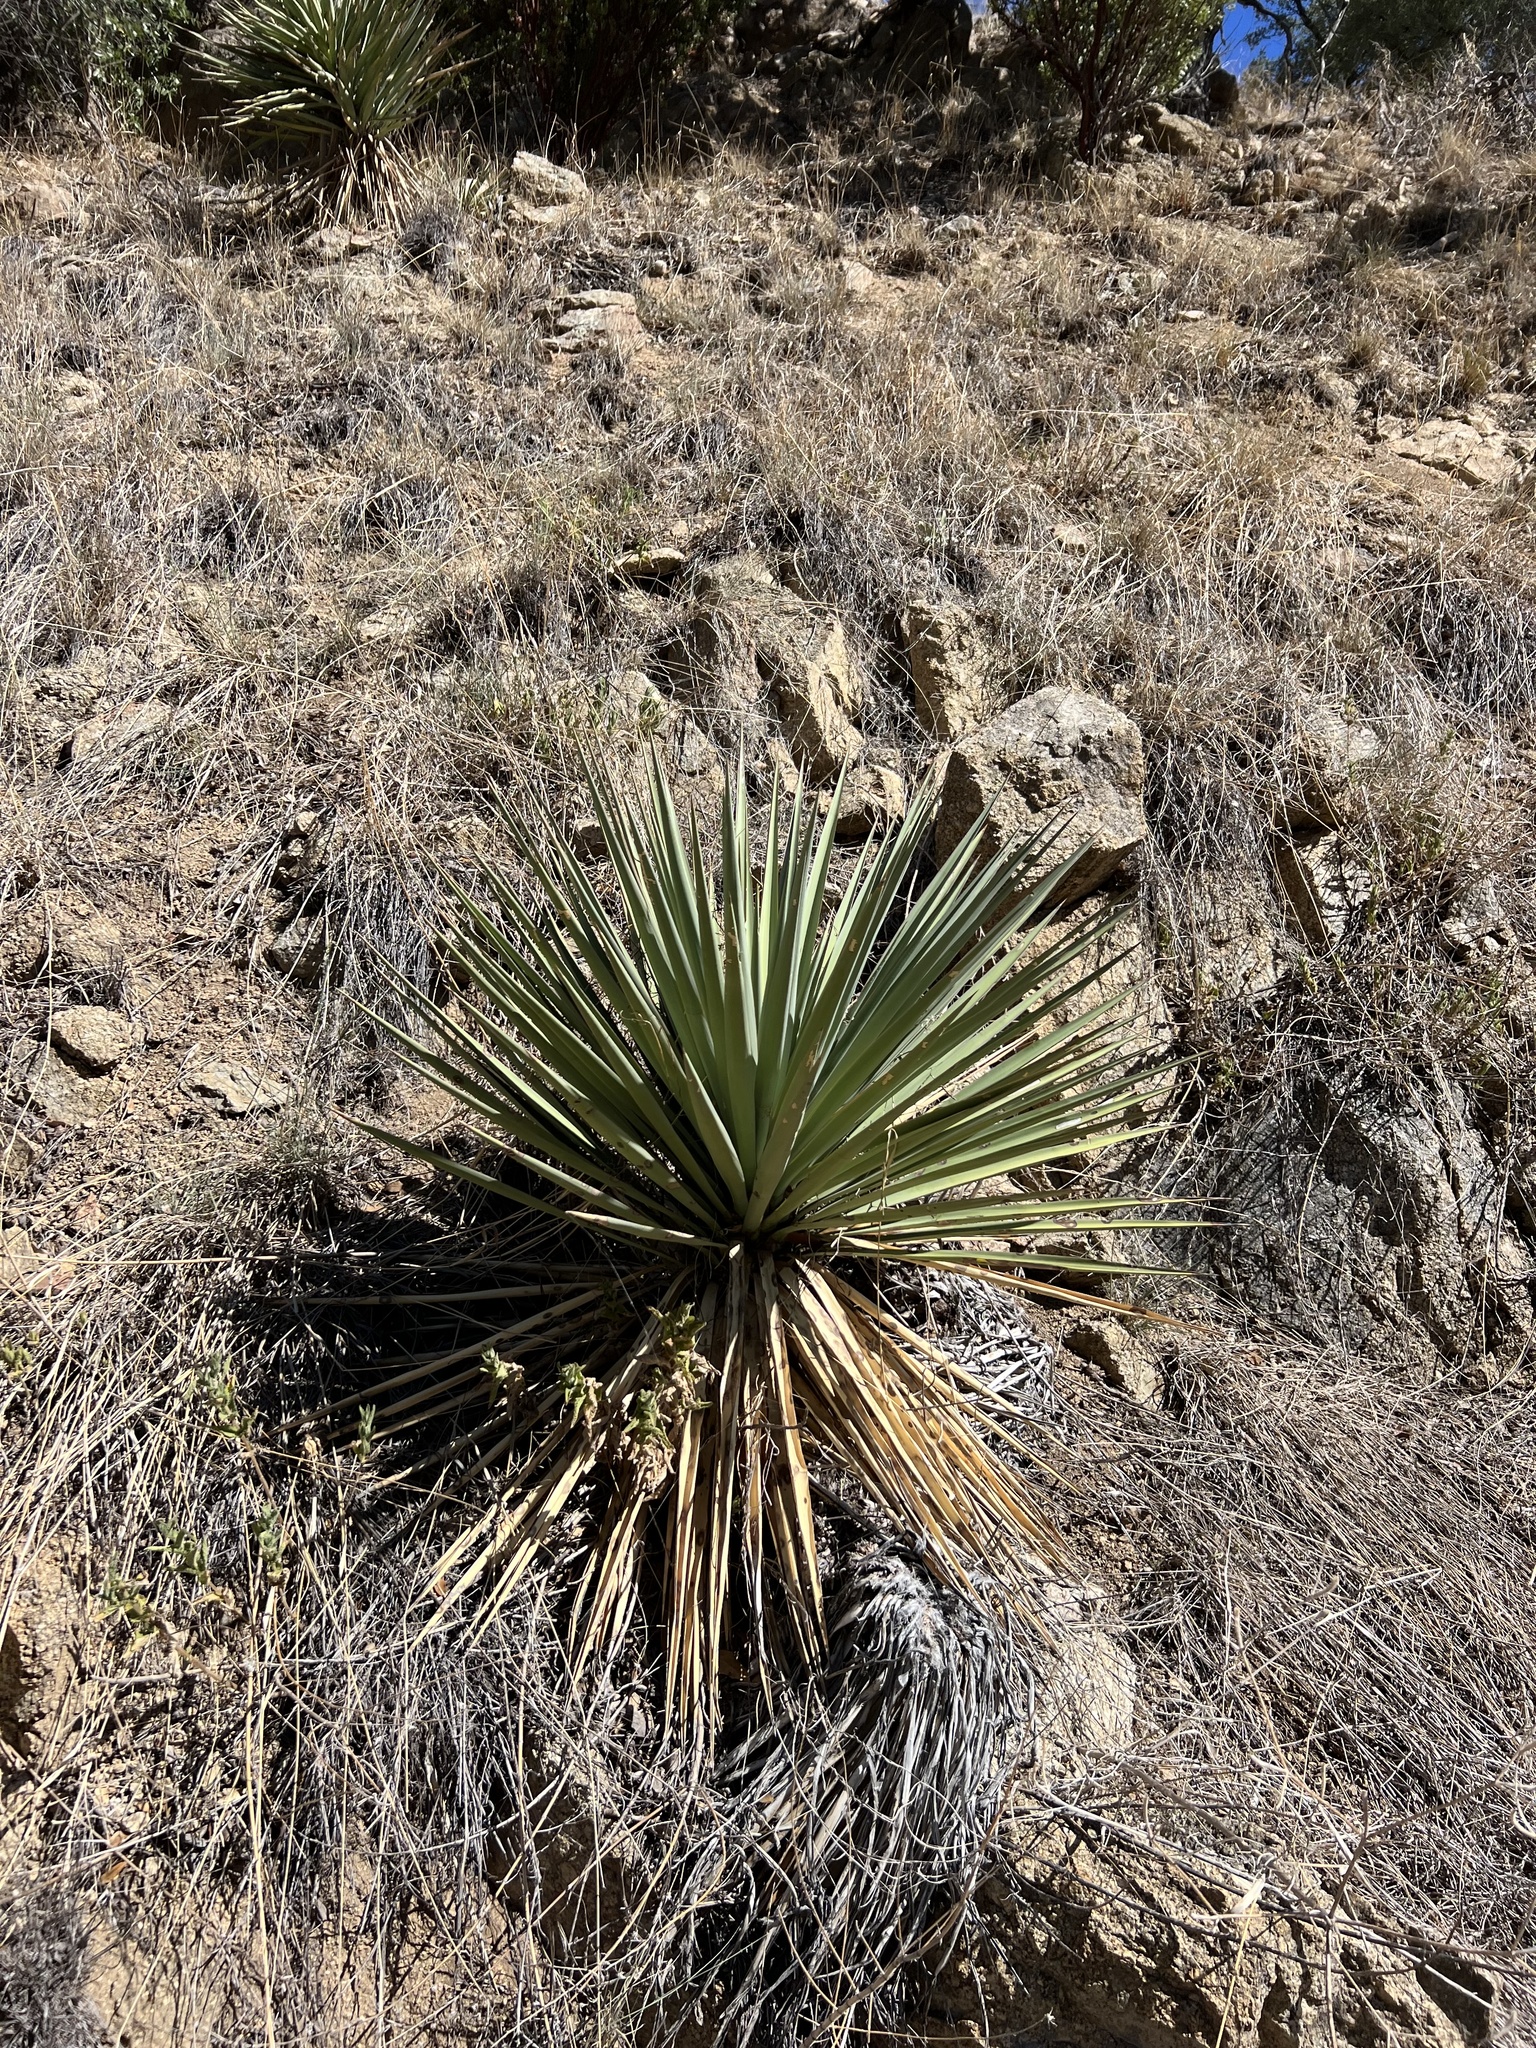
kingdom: Plantae
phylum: Tracheophyta
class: Liliopsida
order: Asparagales
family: Asparagaceae
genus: Yucca
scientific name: Yucca schottii
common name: Hoary yucca
